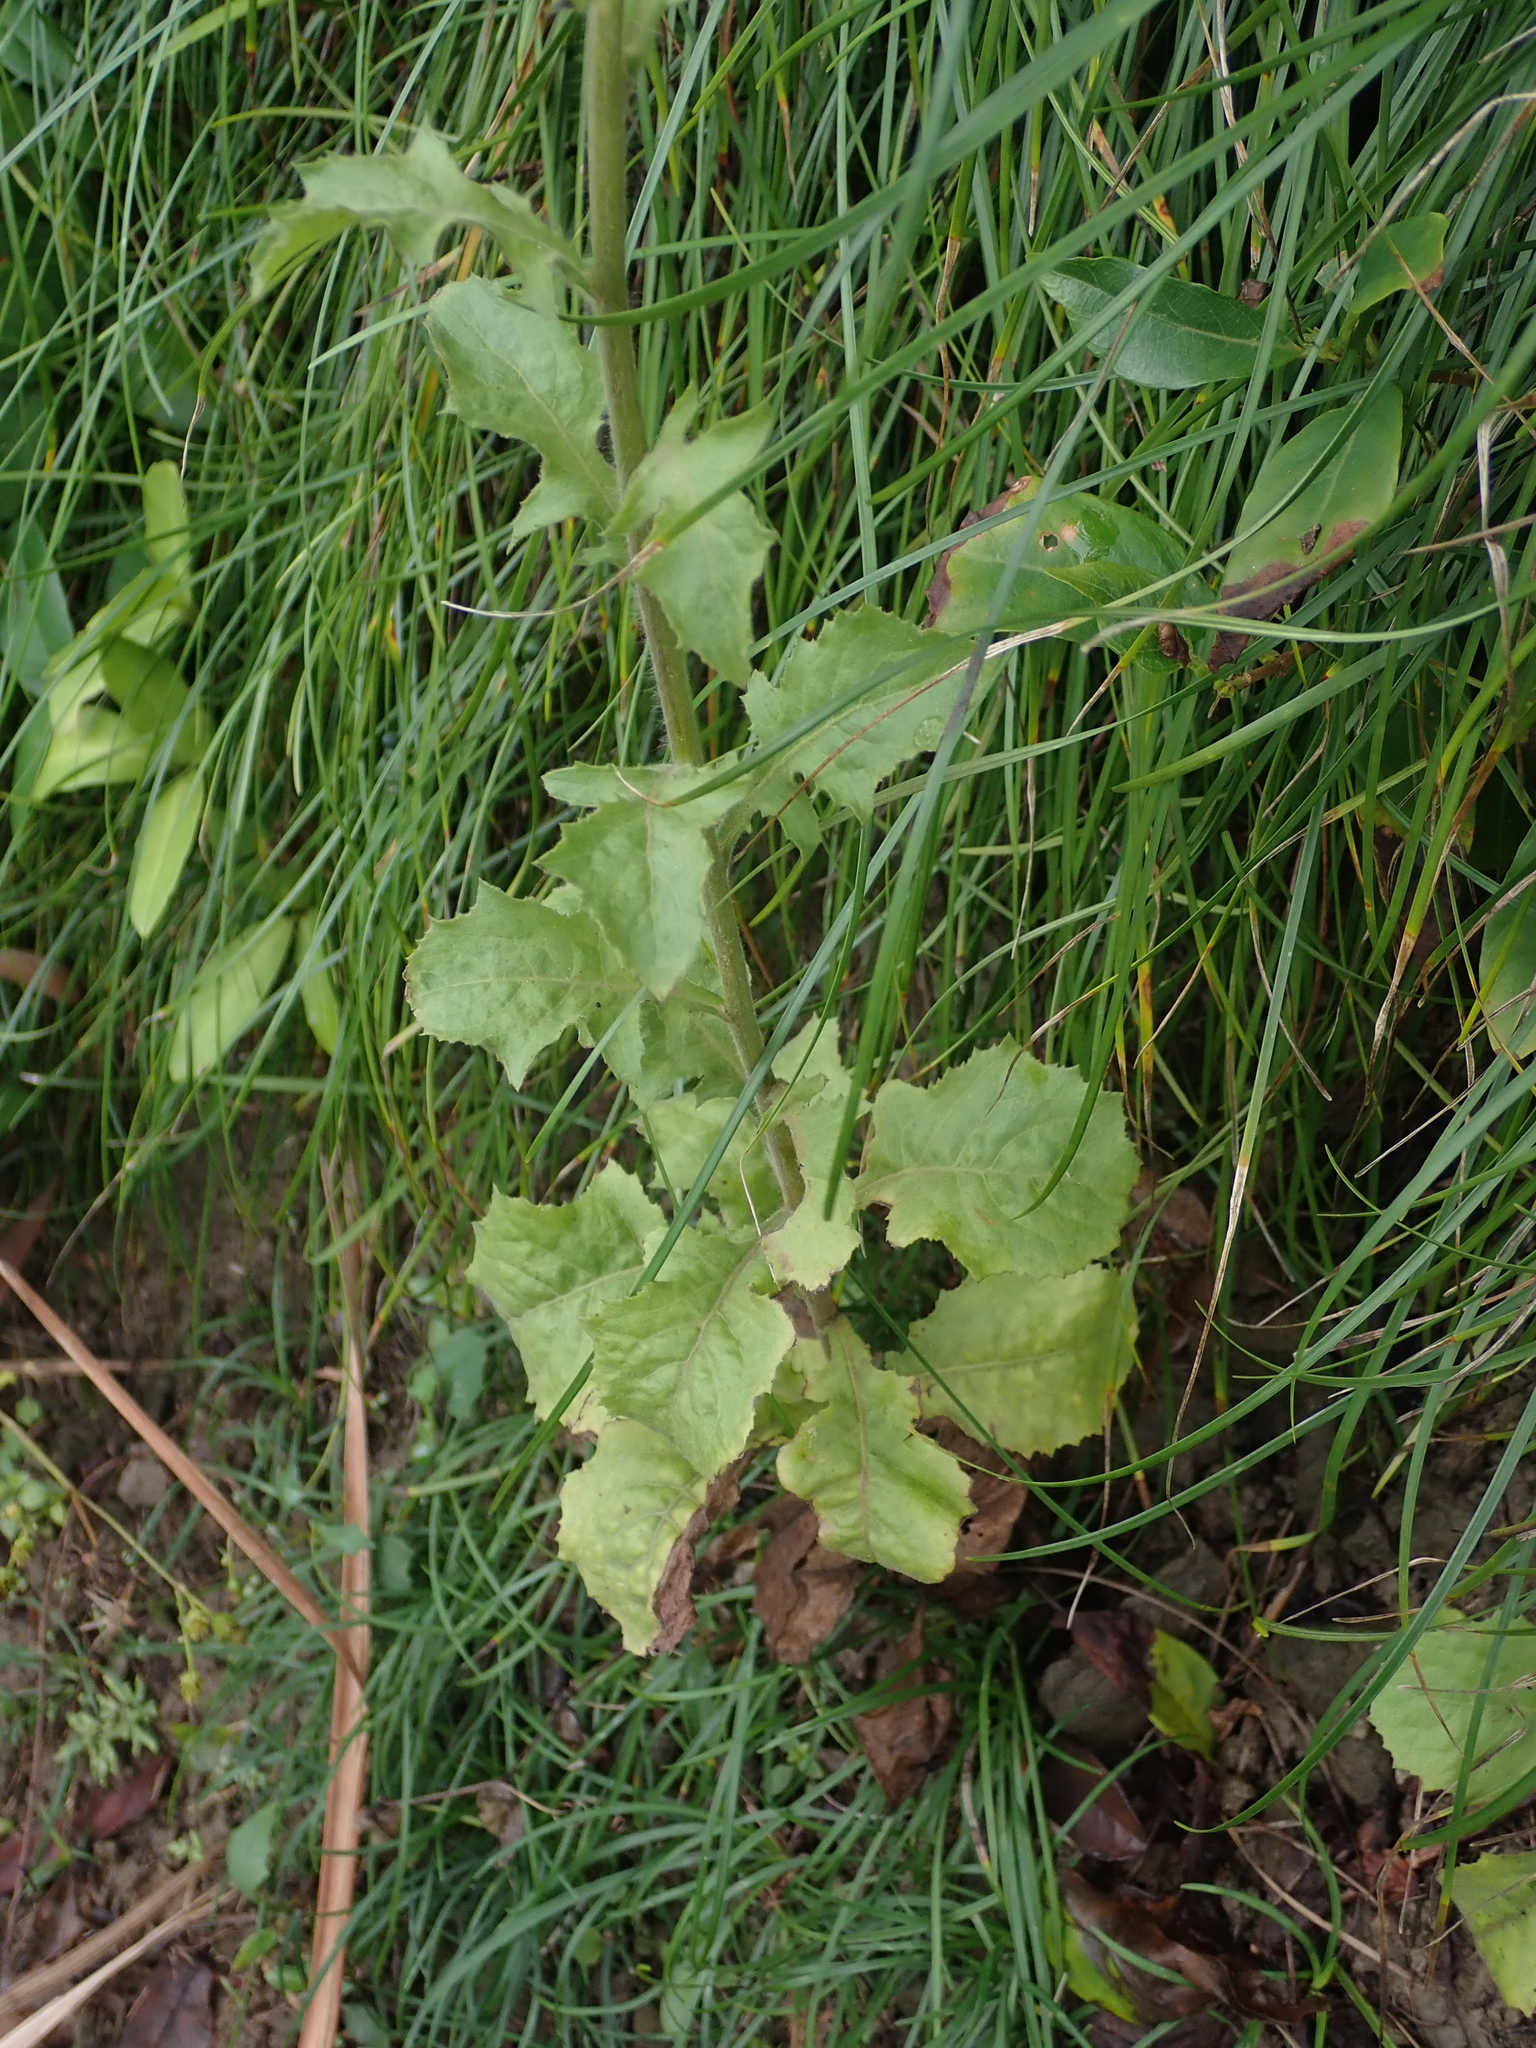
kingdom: Plantae
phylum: Tracheophyta
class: Magnoliopsida
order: Asterales
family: Asteraceae
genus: Blumea
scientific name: Blumea sinuata
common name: Cutleaf false oxtongue
